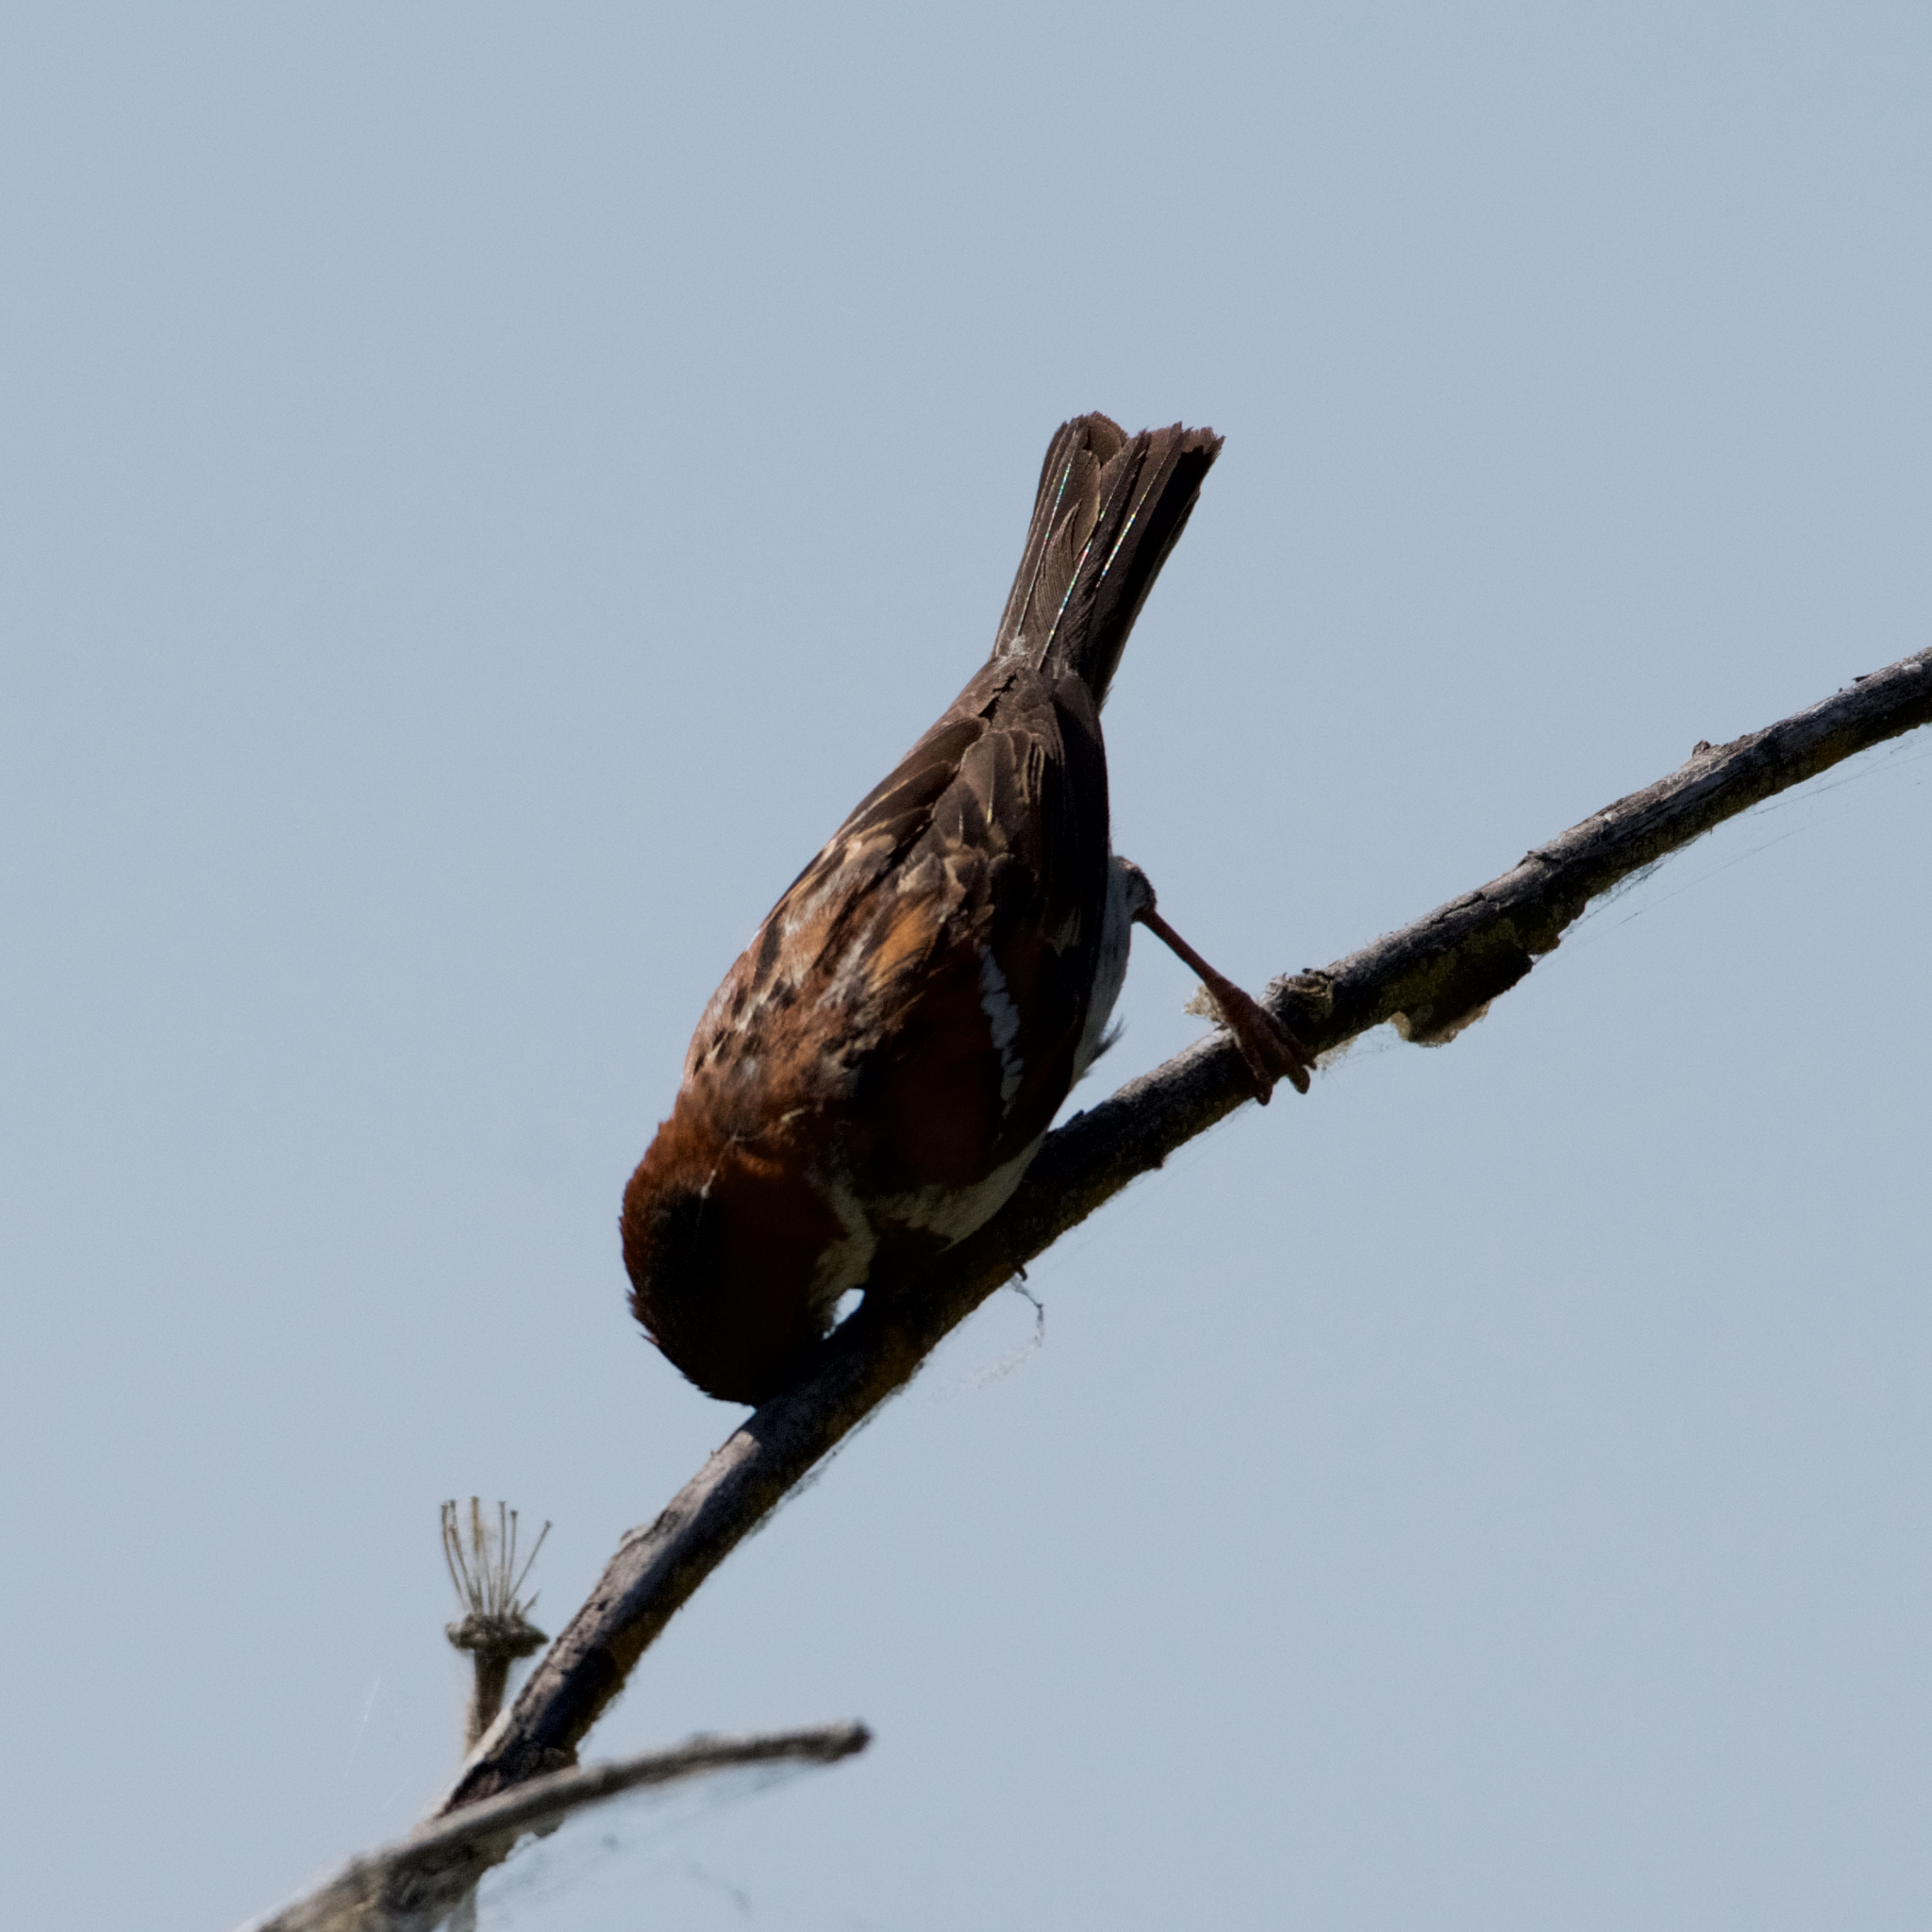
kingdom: Animalia
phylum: Chordata
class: Aves
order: Passeriformes
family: Passeridae
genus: Passer
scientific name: Passer domesticus
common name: House sparrow
